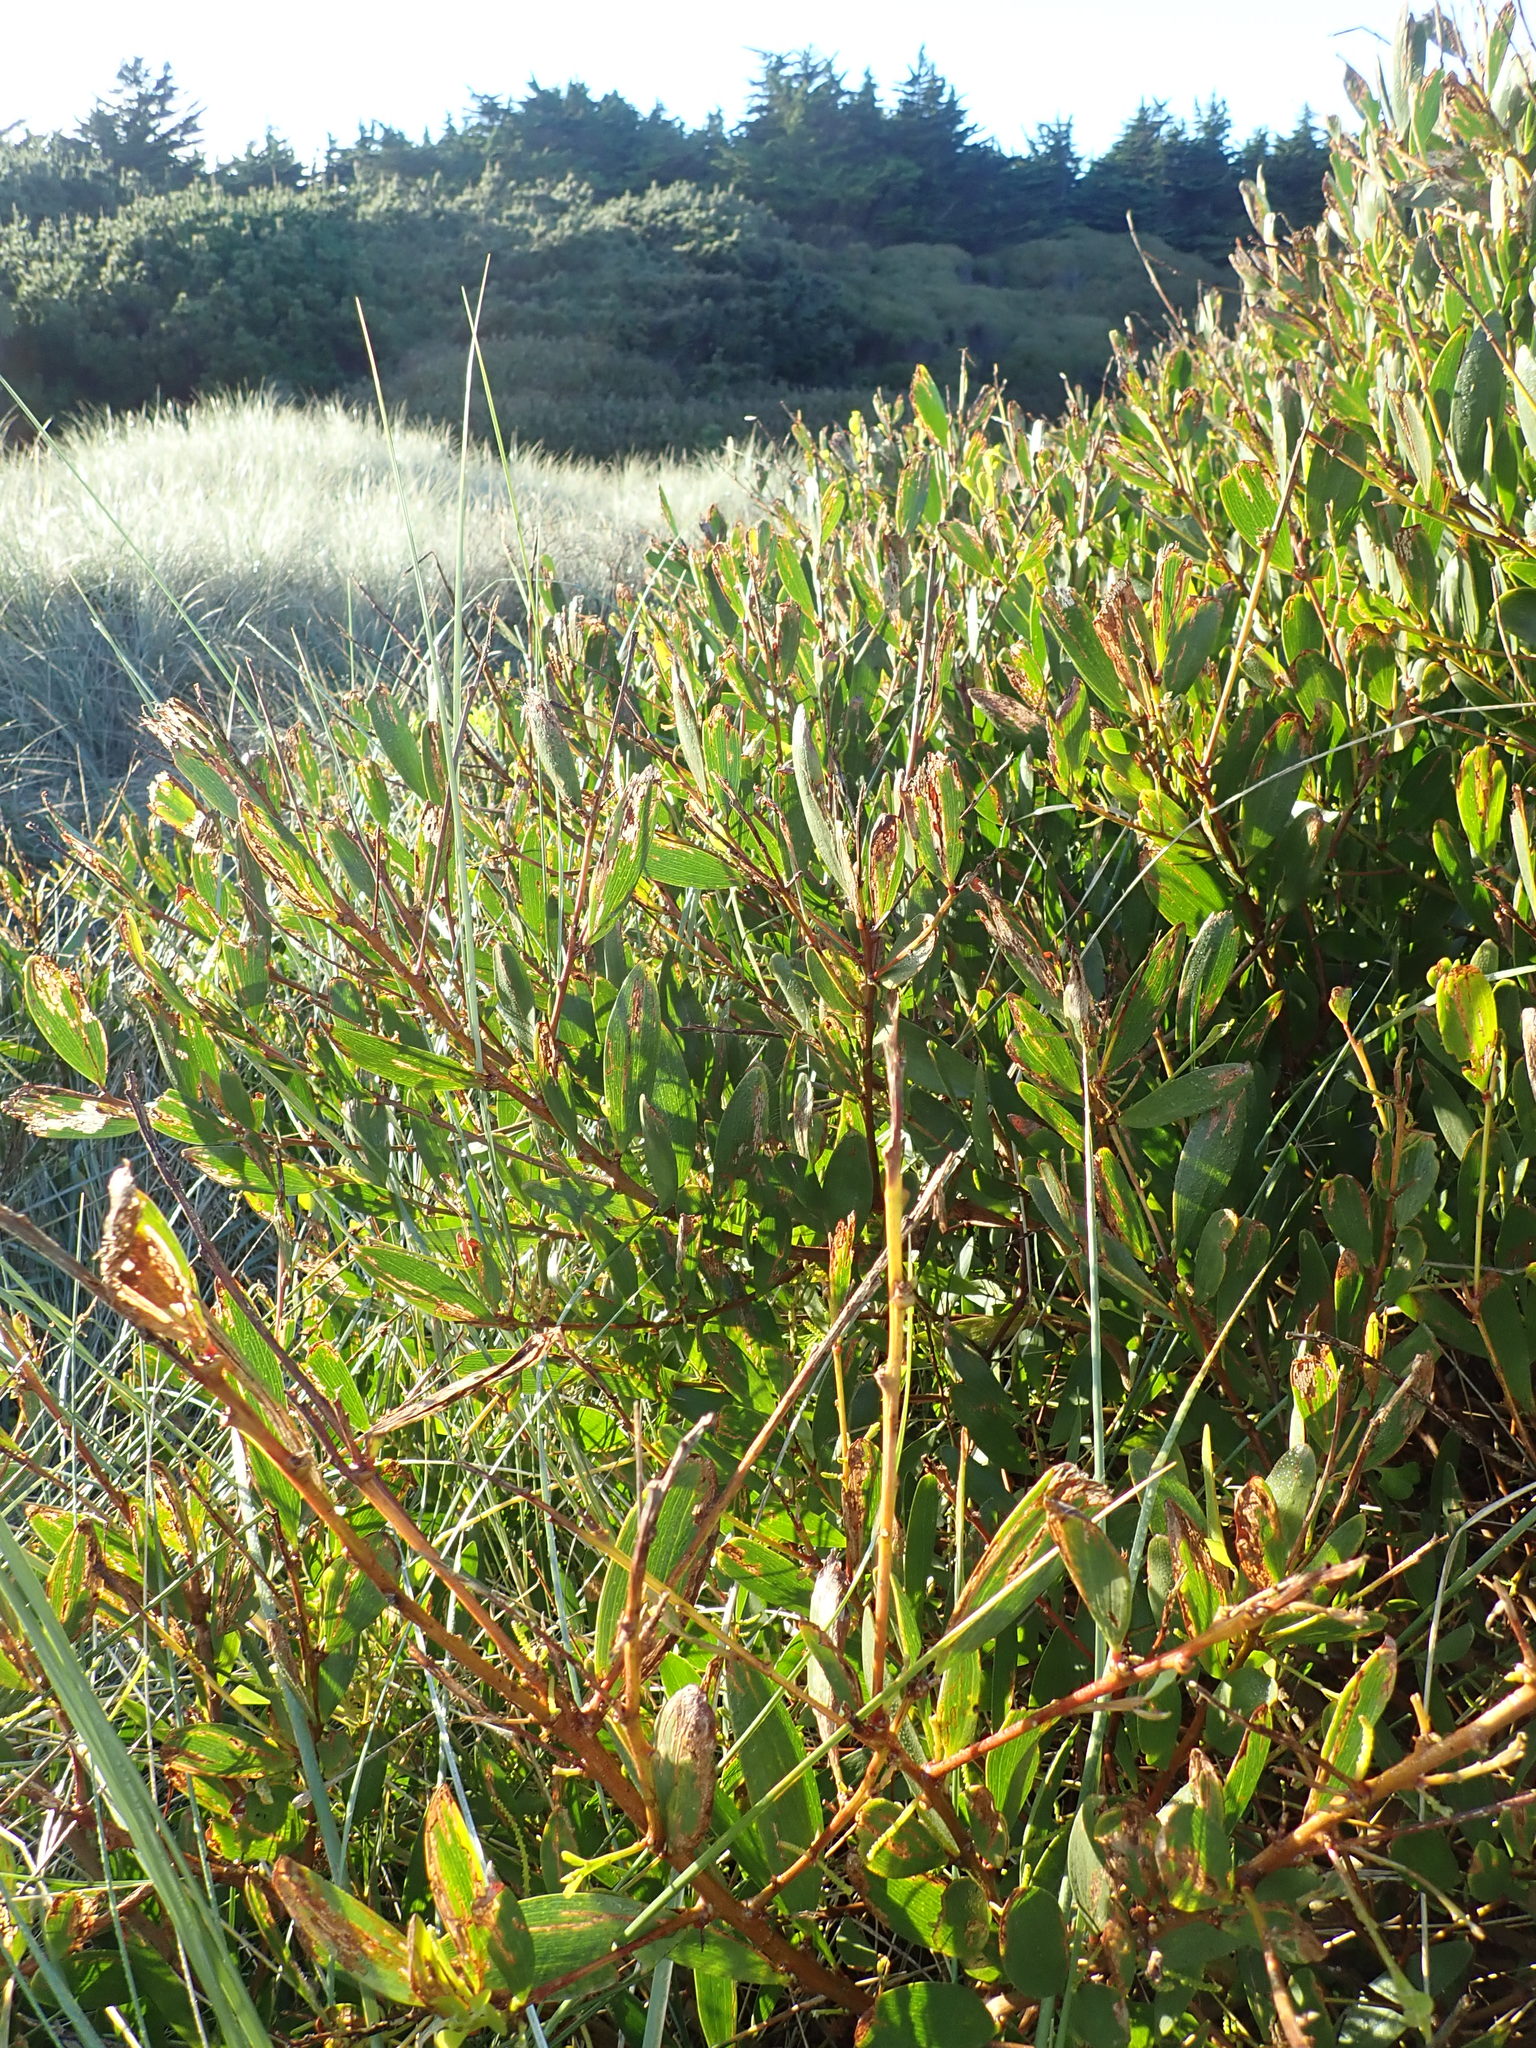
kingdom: Plantae
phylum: Tracheophyta
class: Magnoliopsida
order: Fabales
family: Fabaceae
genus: Acacia
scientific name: Acacia longifolia
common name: Sydney golden wattle
